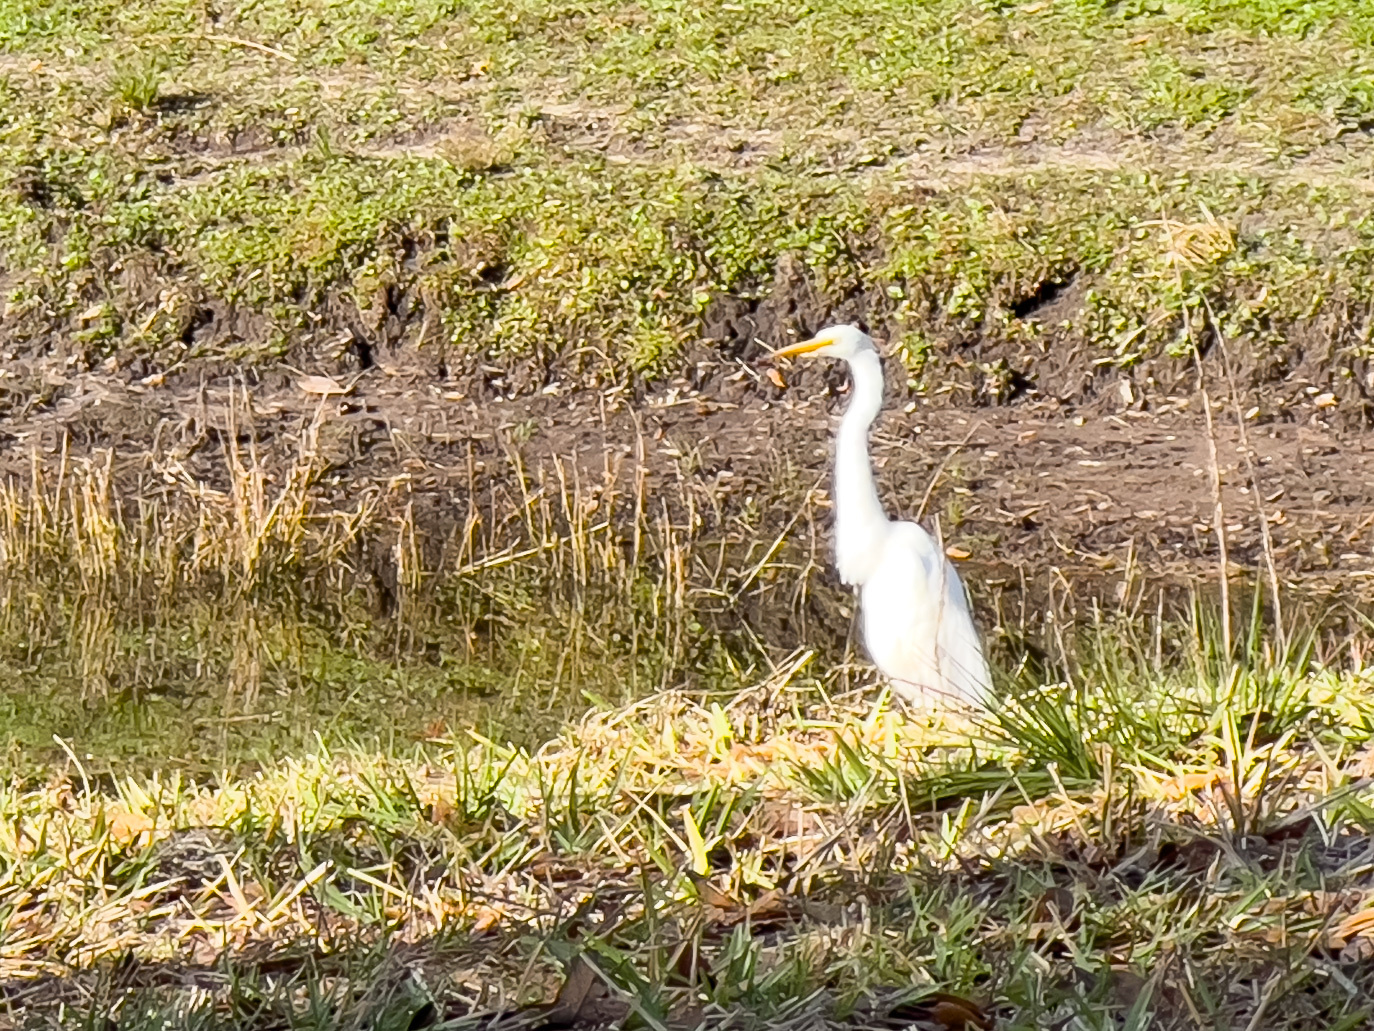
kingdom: Animalia
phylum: Chordata
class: Aves
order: Pelecaniformes
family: Ardeidae
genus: Ardea
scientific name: Ardea alba
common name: Great egret
